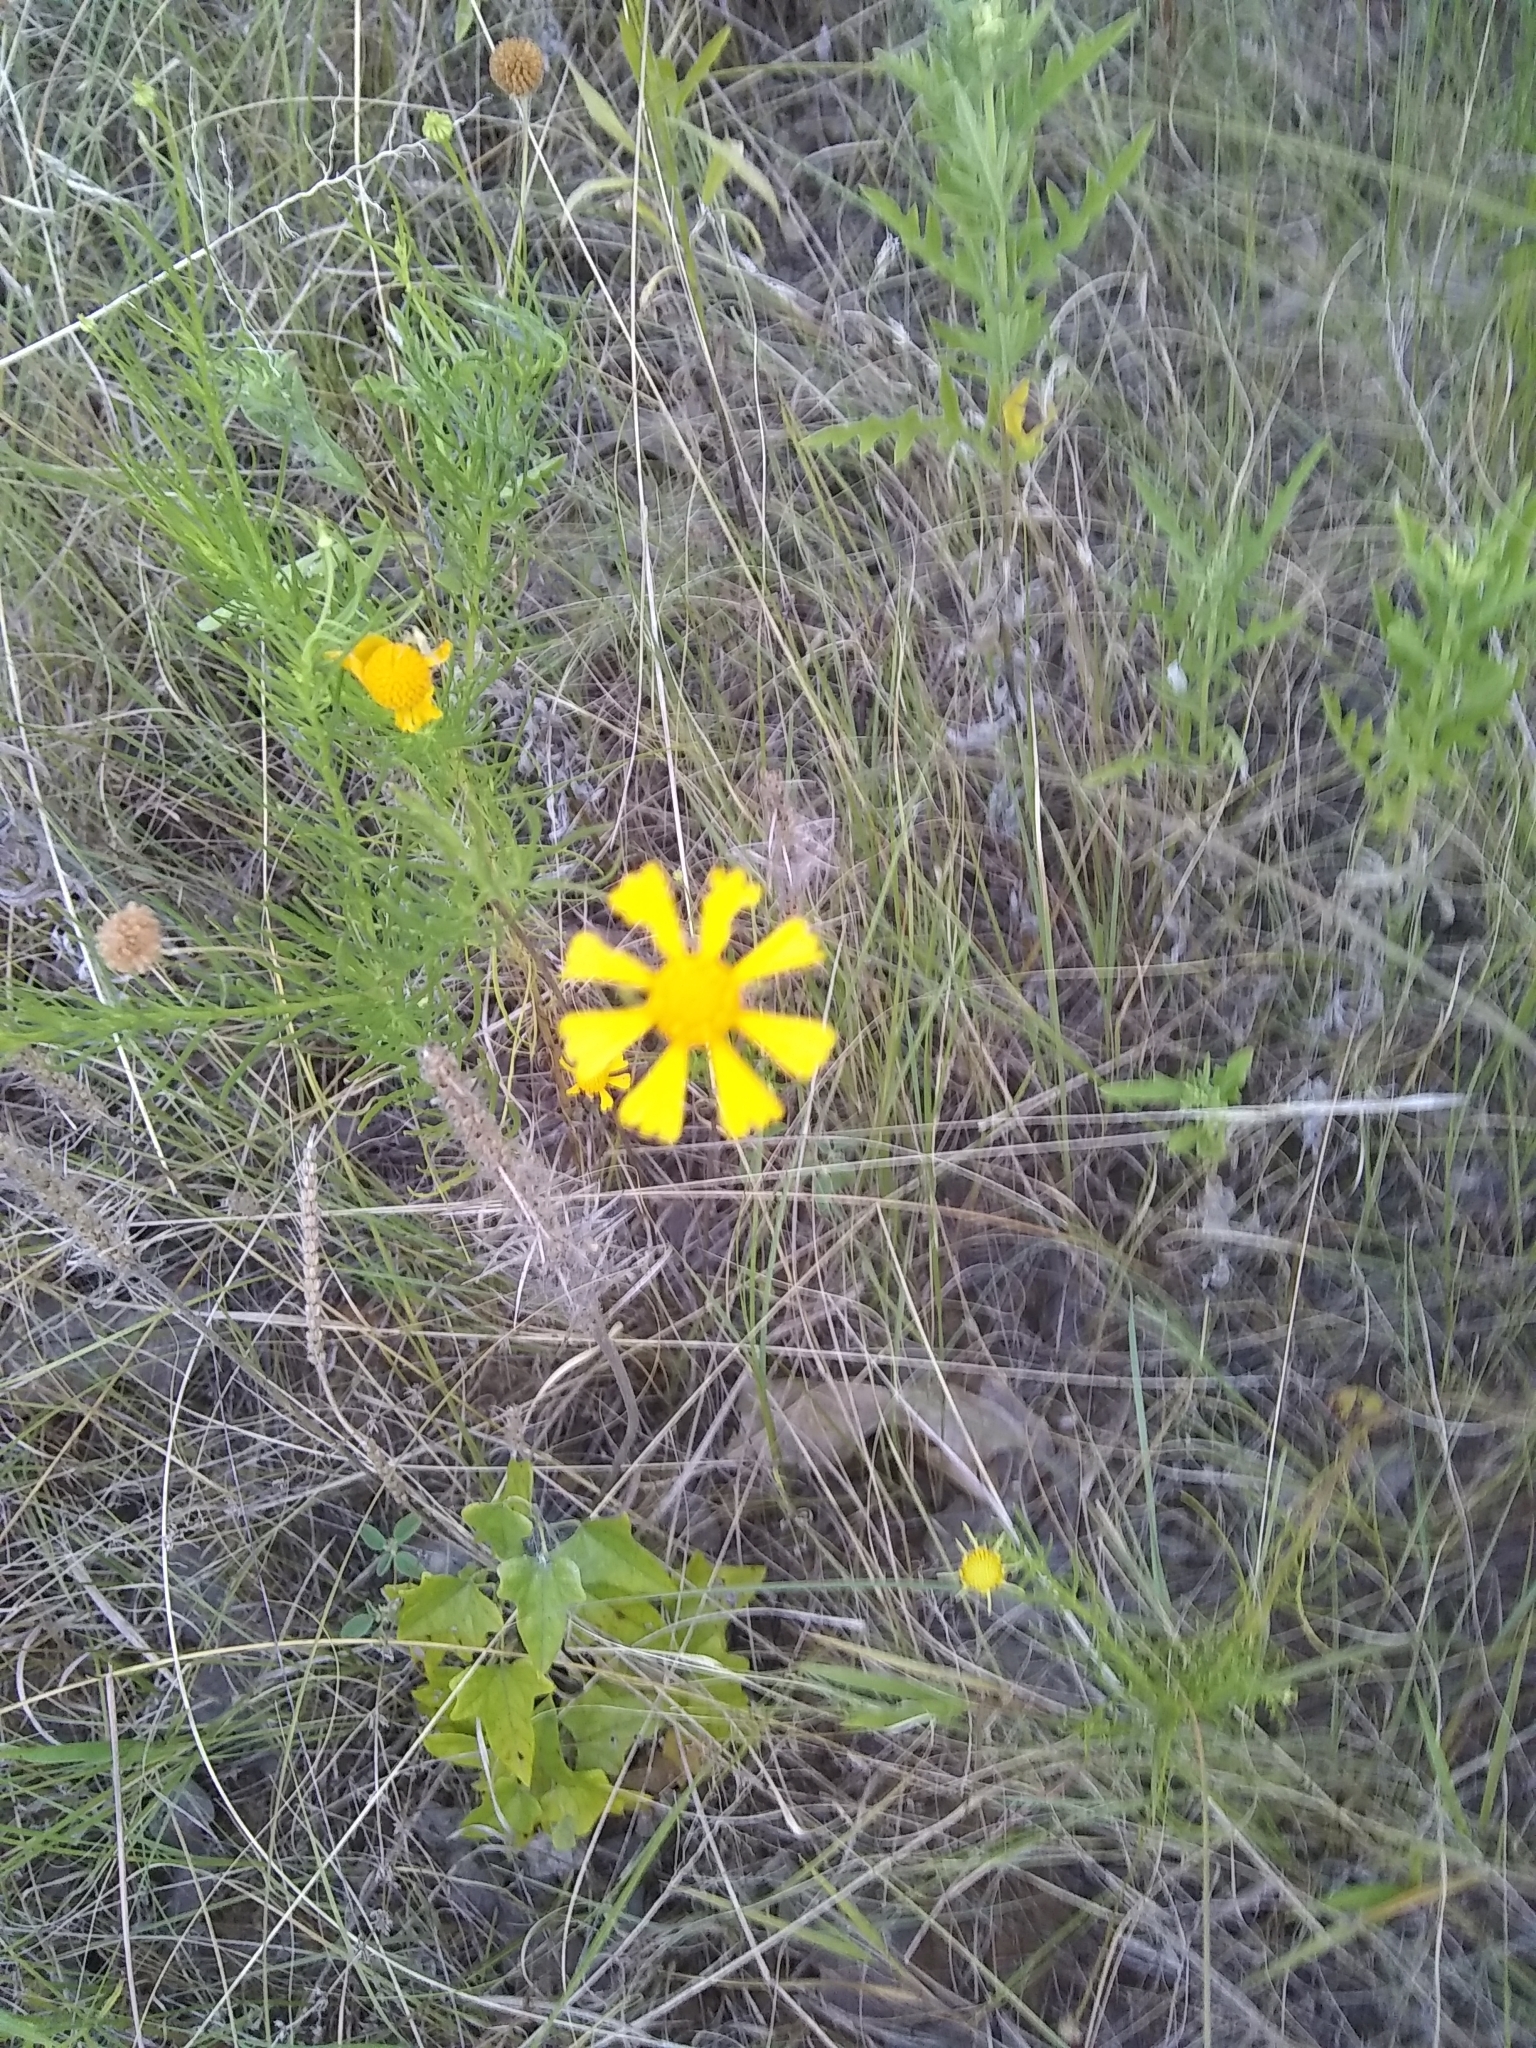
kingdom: Plantae
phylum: Tracheophyta
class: Magnoliopsida
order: Asterales
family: Asteraceae
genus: Helenium
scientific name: Helenium amarum
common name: Bitter sneezeweed
